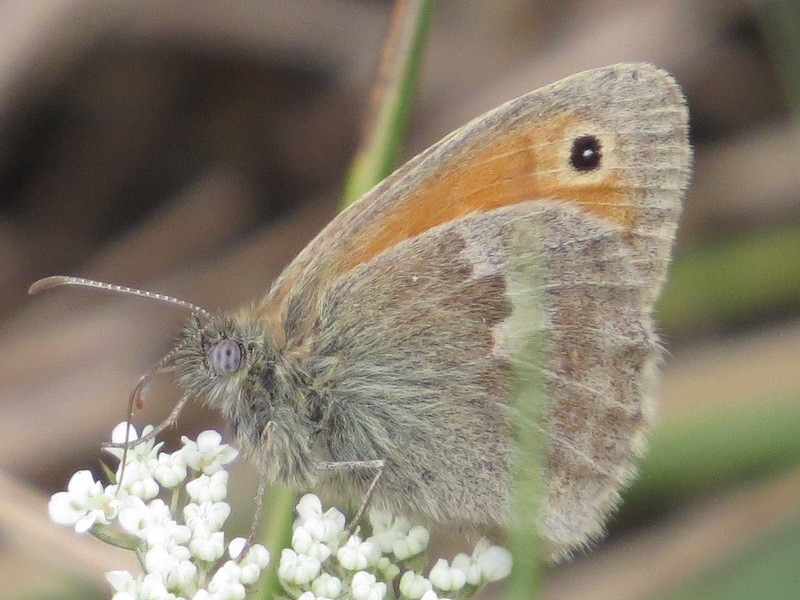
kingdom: Animalia
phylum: Arthropoda
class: Insecta
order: Lepidoptera
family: Nymphalidae
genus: Coenonympha
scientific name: Coenonympha pamphilus
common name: Small heath
